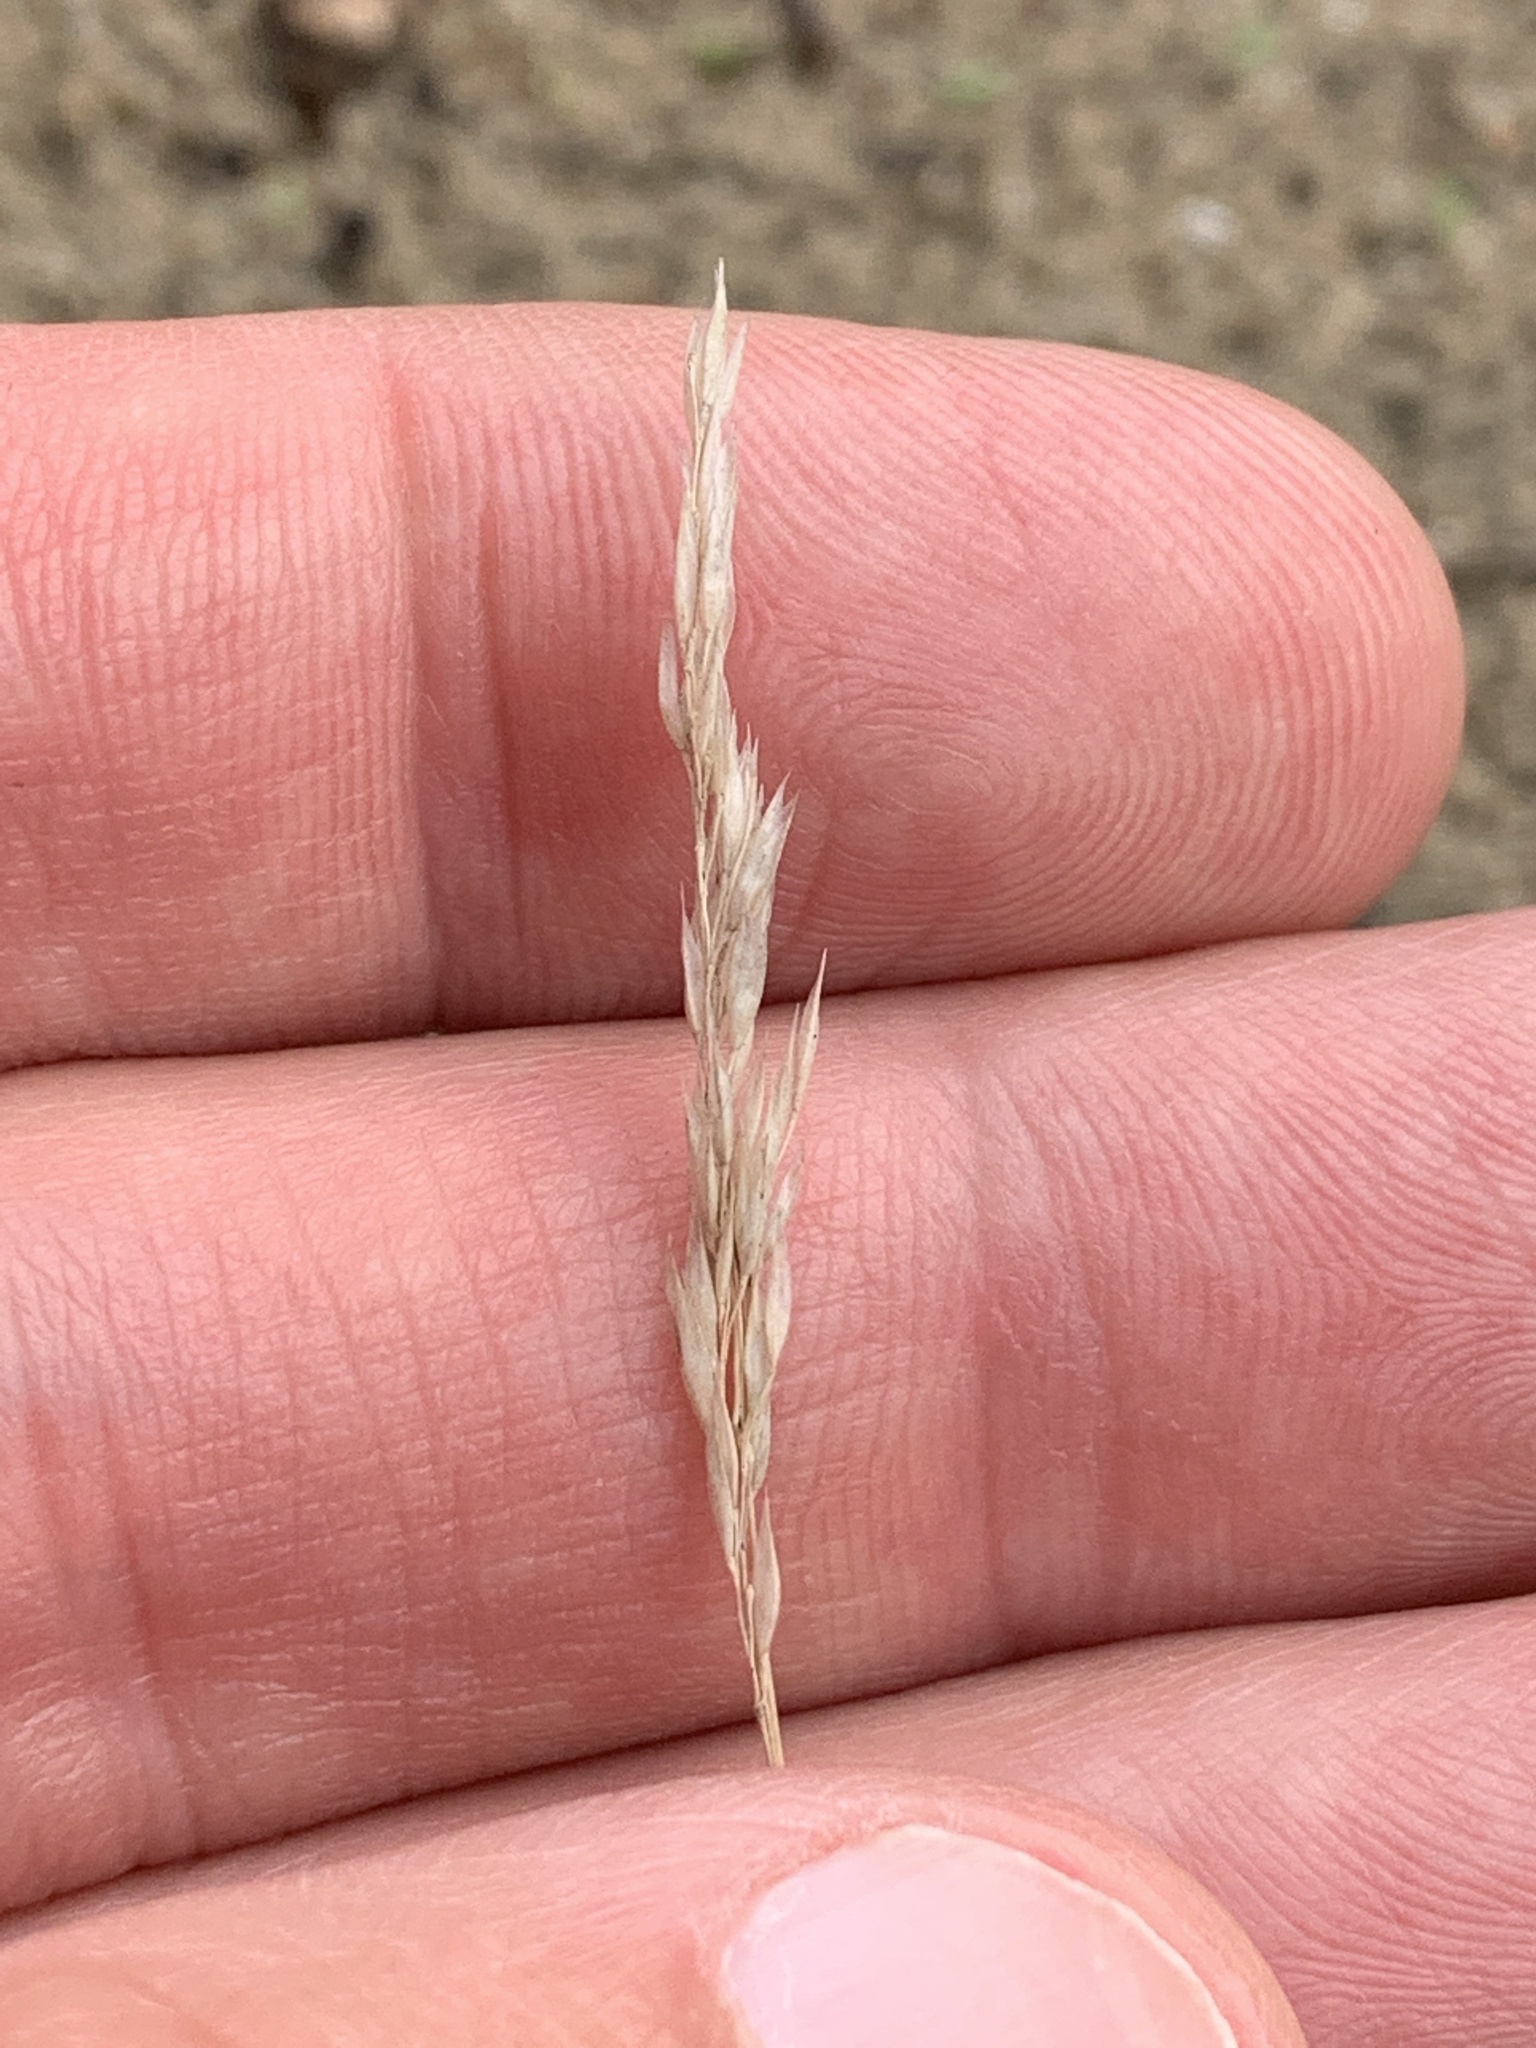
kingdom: Plantae
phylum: Tracheophyta
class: Liliopsida
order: Poales
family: Poaceae
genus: Corynephorus
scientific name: Corynephorus canescens
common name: Grey hair-grass
